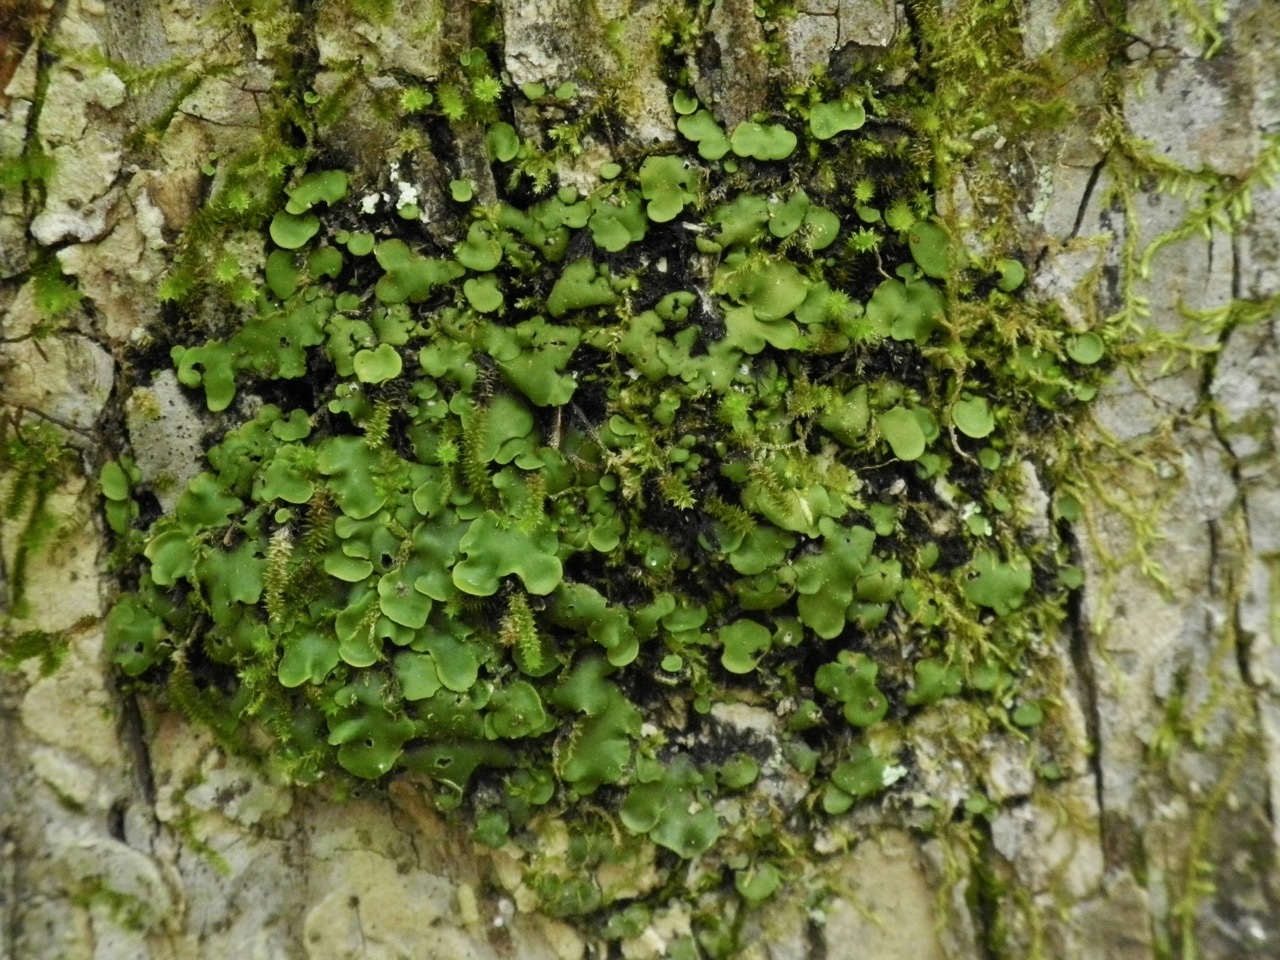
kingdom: Fungi
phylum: Ascomycota
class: Eurotiomycetes
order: Verrucariales
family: Verrucariaceae
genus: Placidium
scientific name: Placidium arboreum
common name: Tree stipplescale
